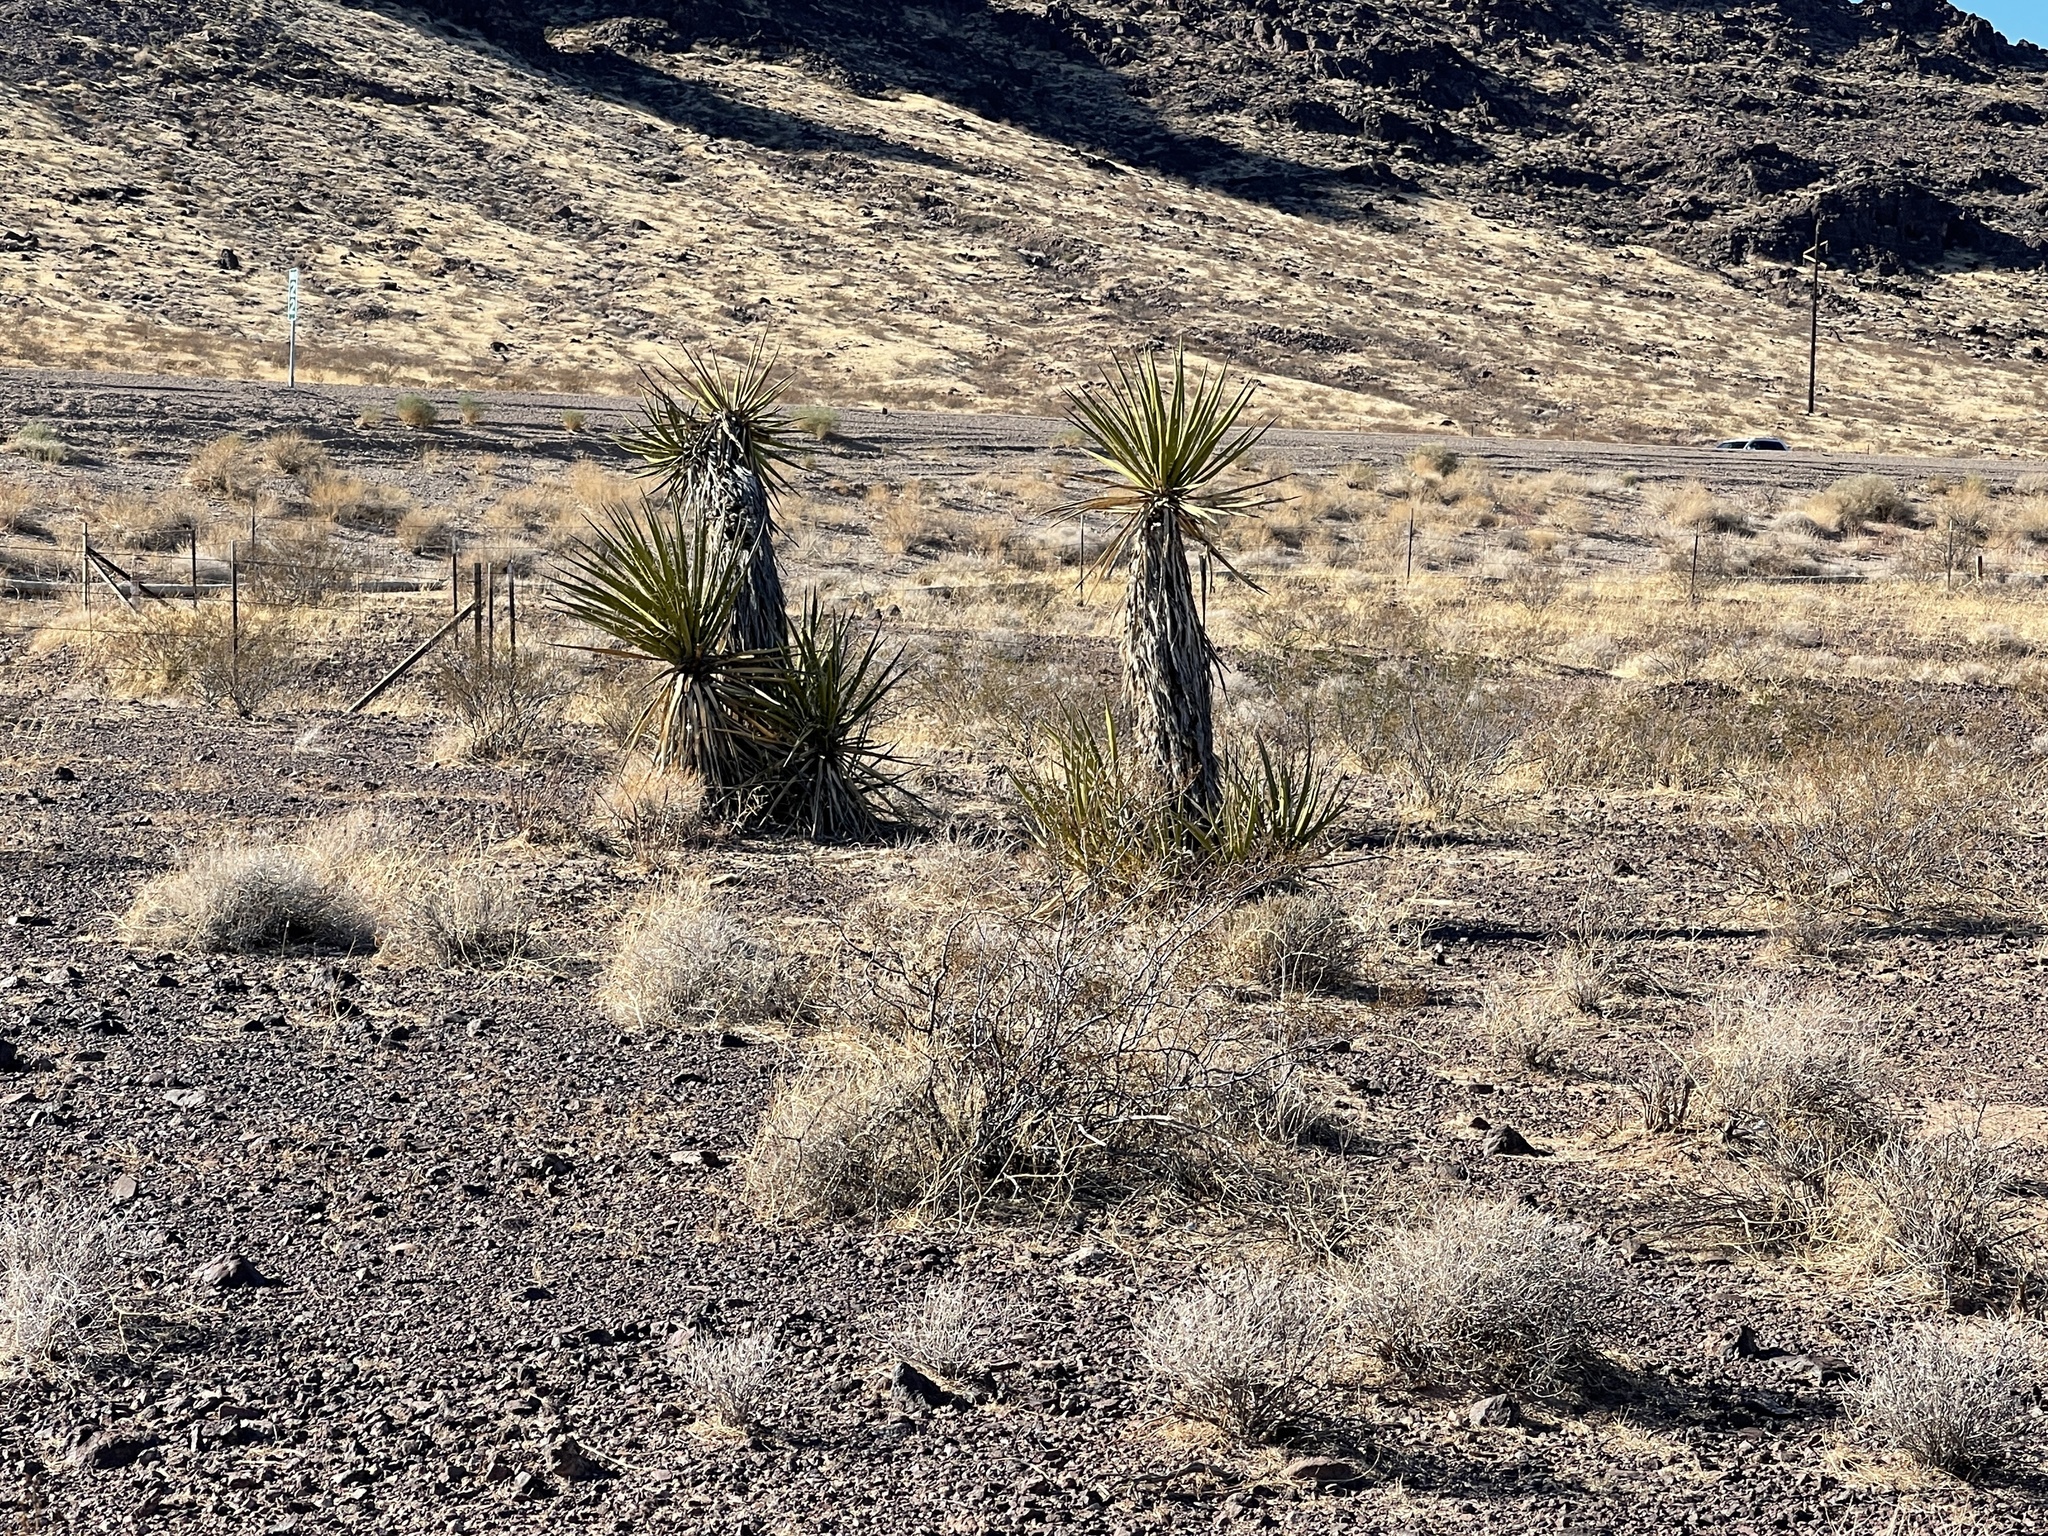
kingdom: Plantae
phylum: Tracheophyta
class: Liliopsida
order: Asparagales
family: Asparagaceae
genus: Yucca
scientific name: Yucca schidigera
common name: Mojave yucca
